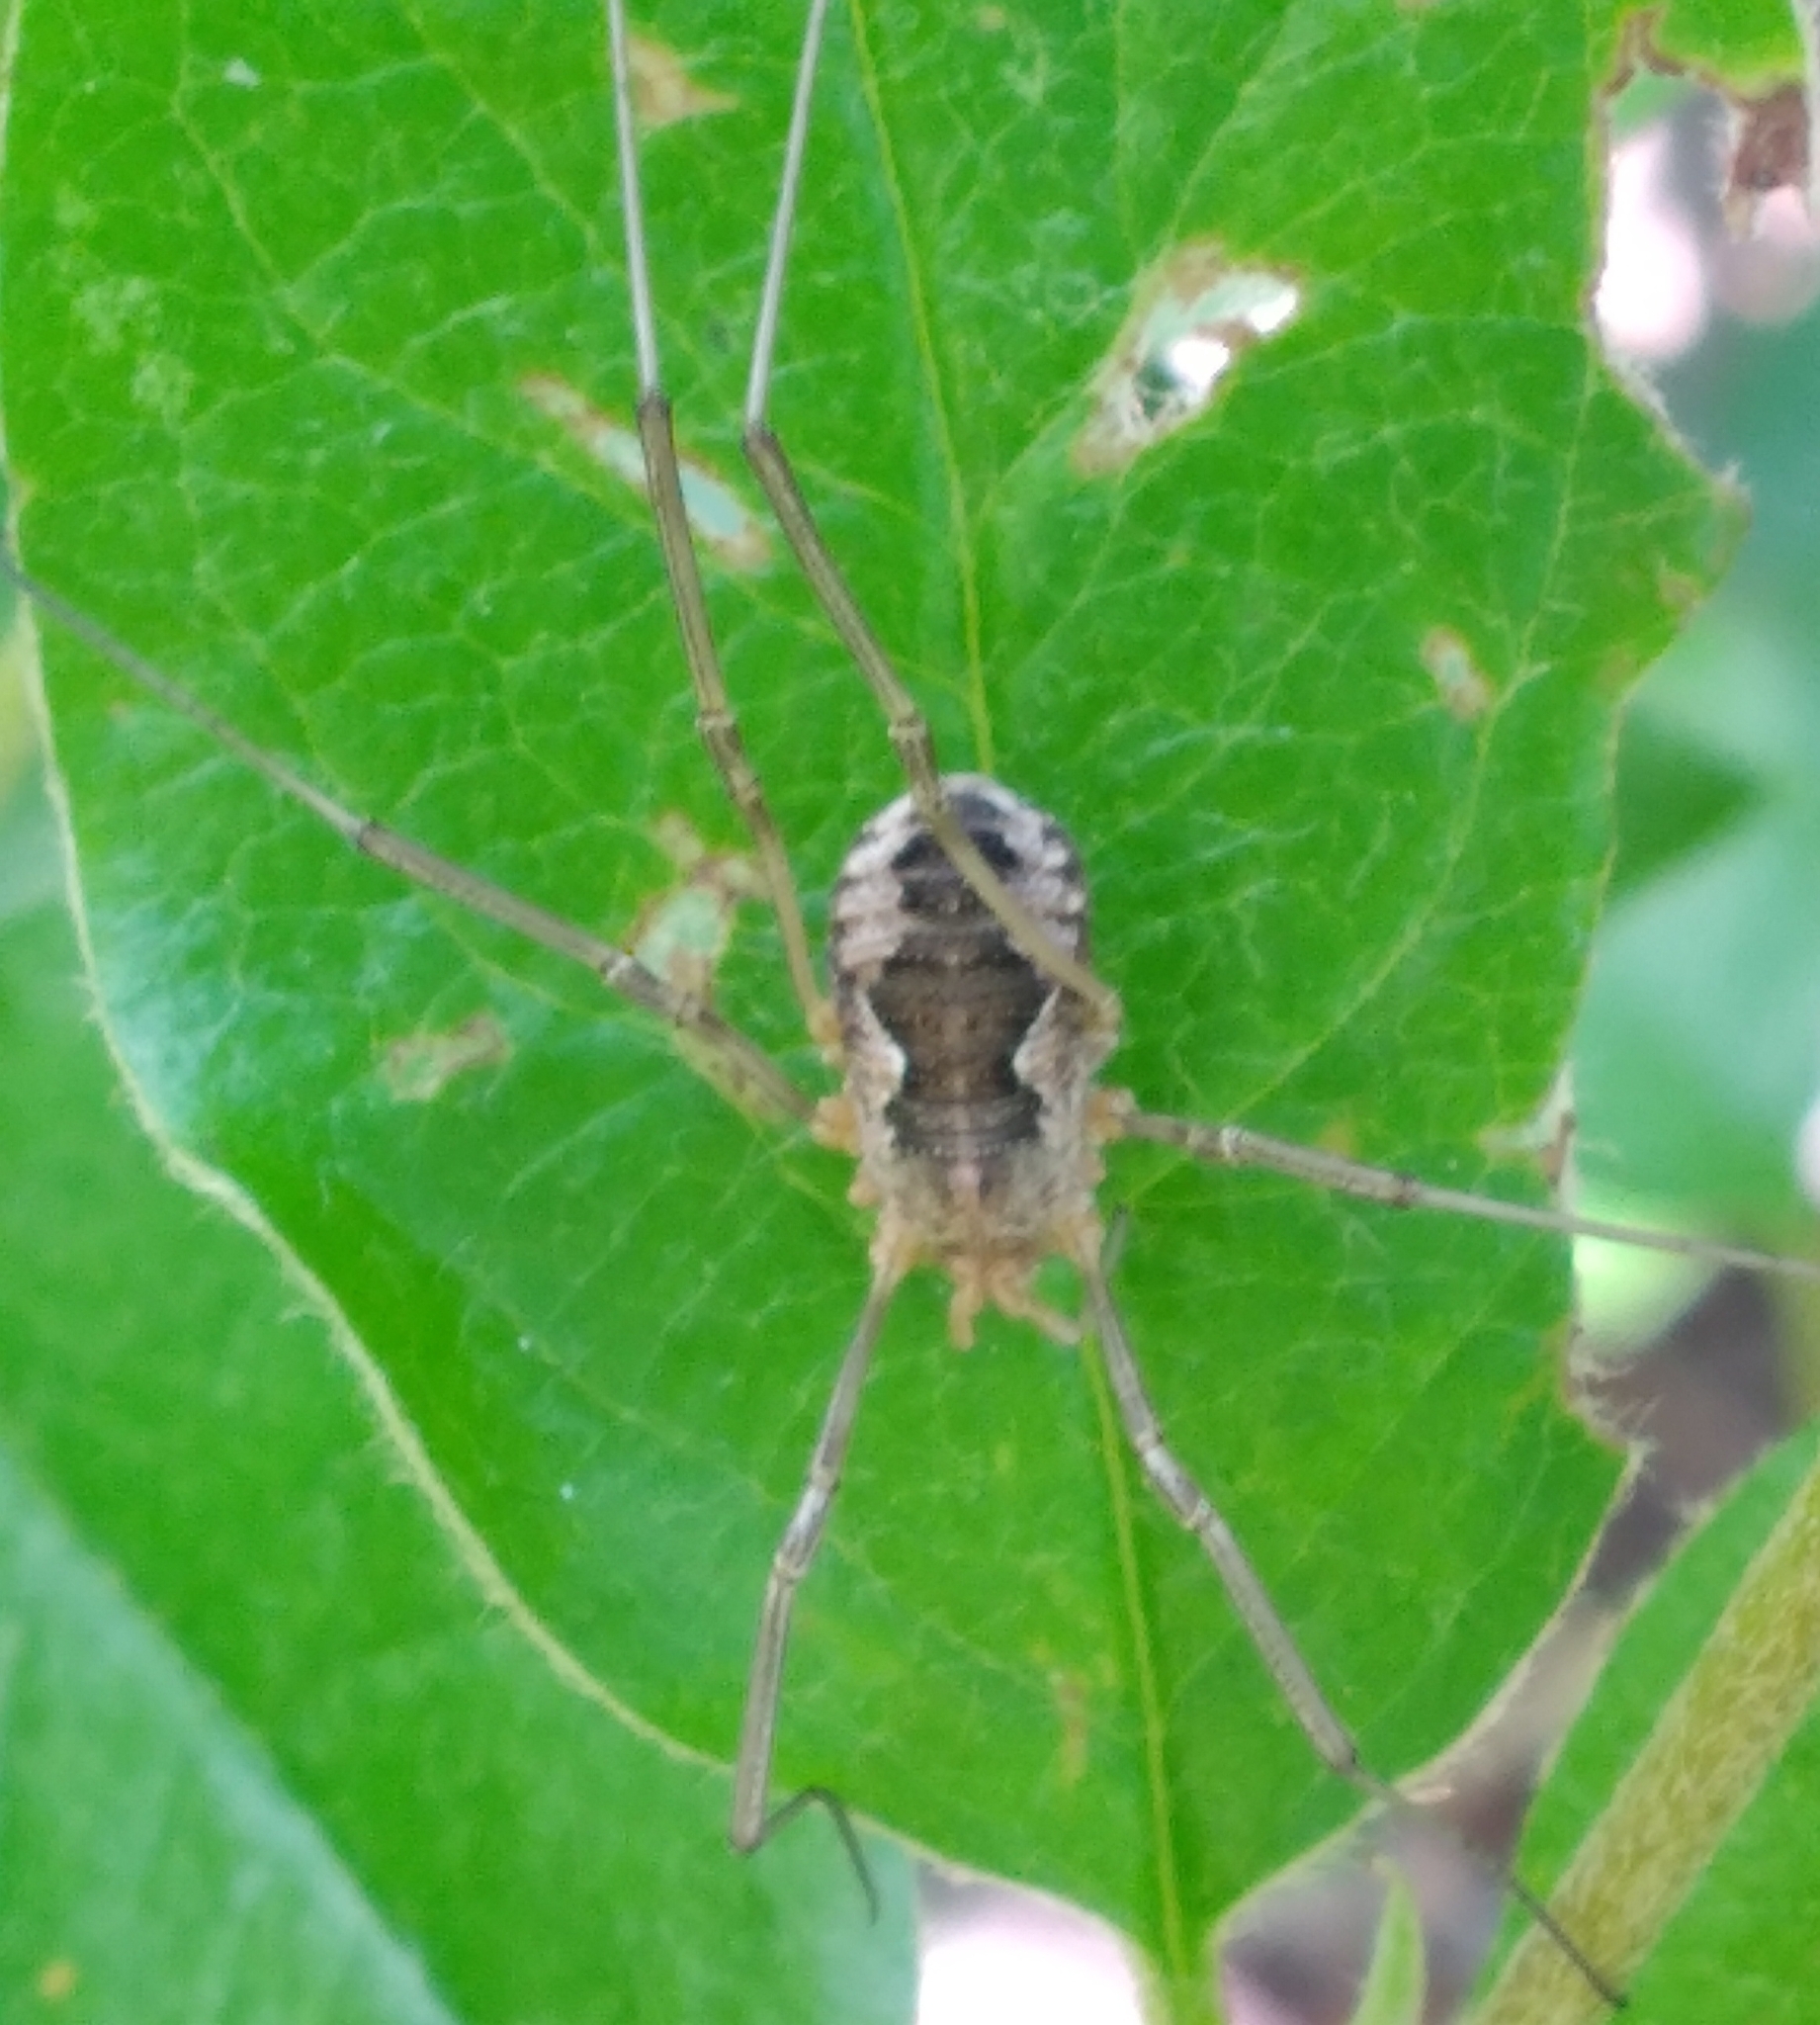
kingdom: Animalia
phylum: Arthropoda
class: Arachnida
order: Opiliones
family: Phalangiidae
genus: Phalangium
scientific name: Phalangium opilio
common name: Daddy longleg
